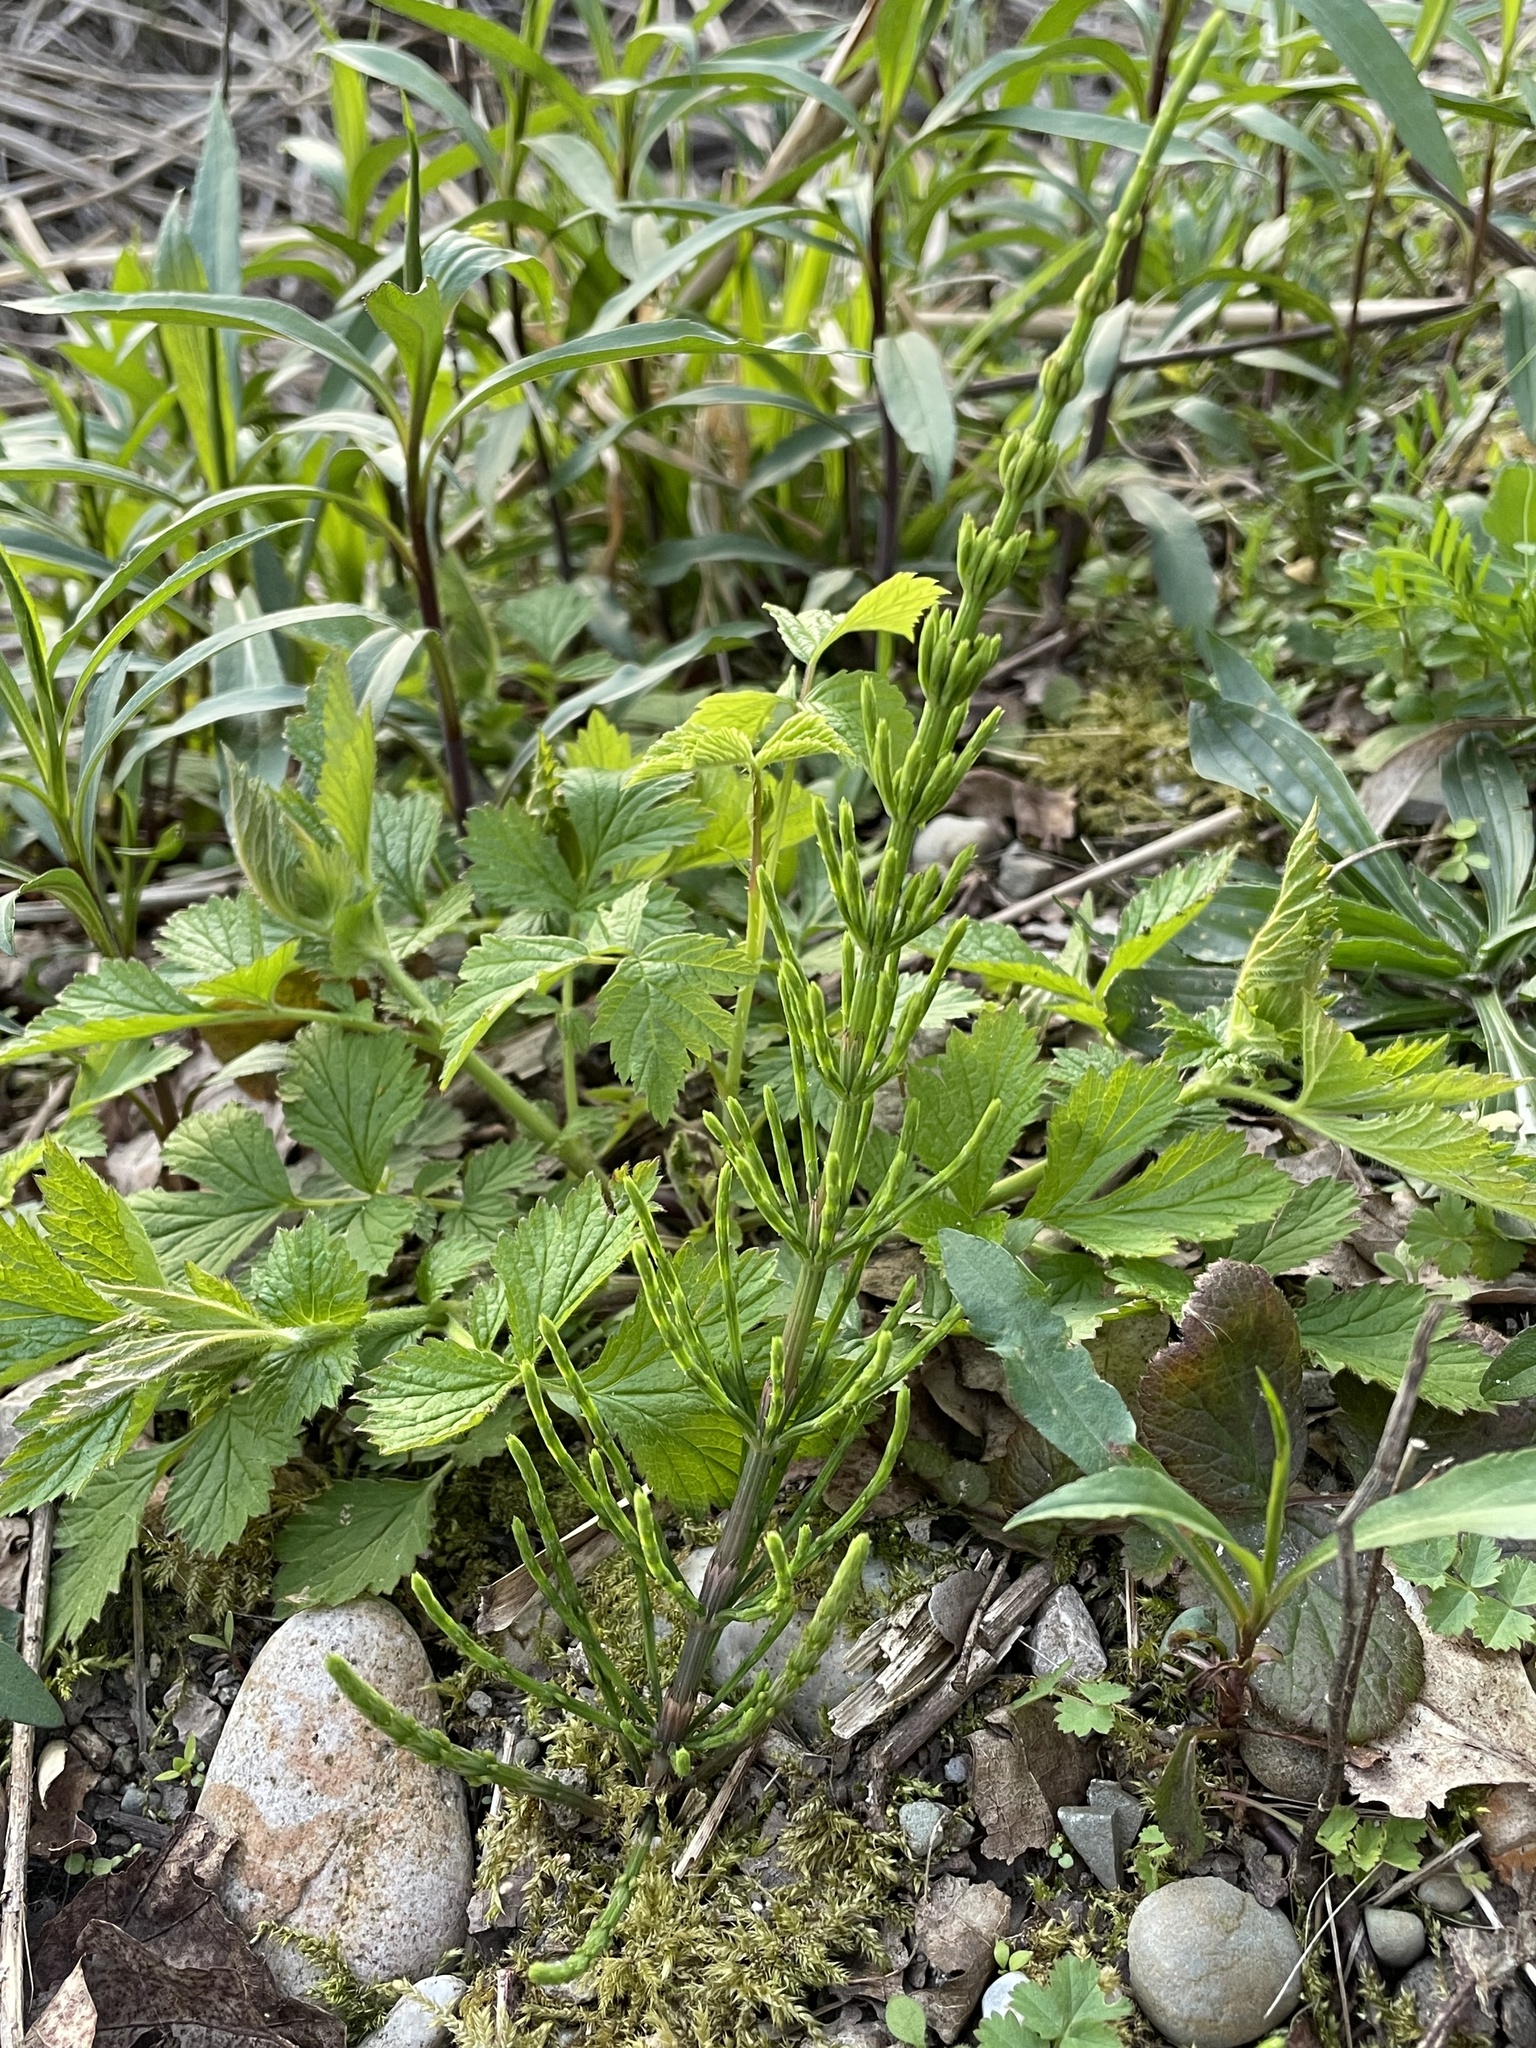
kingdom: Plantae
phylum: Tracheophyta
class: Polypodiopsida
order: Equisetales
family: Equisetaceae
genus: Equisetum
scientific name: Equisetum arvense
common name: Field horsetail
